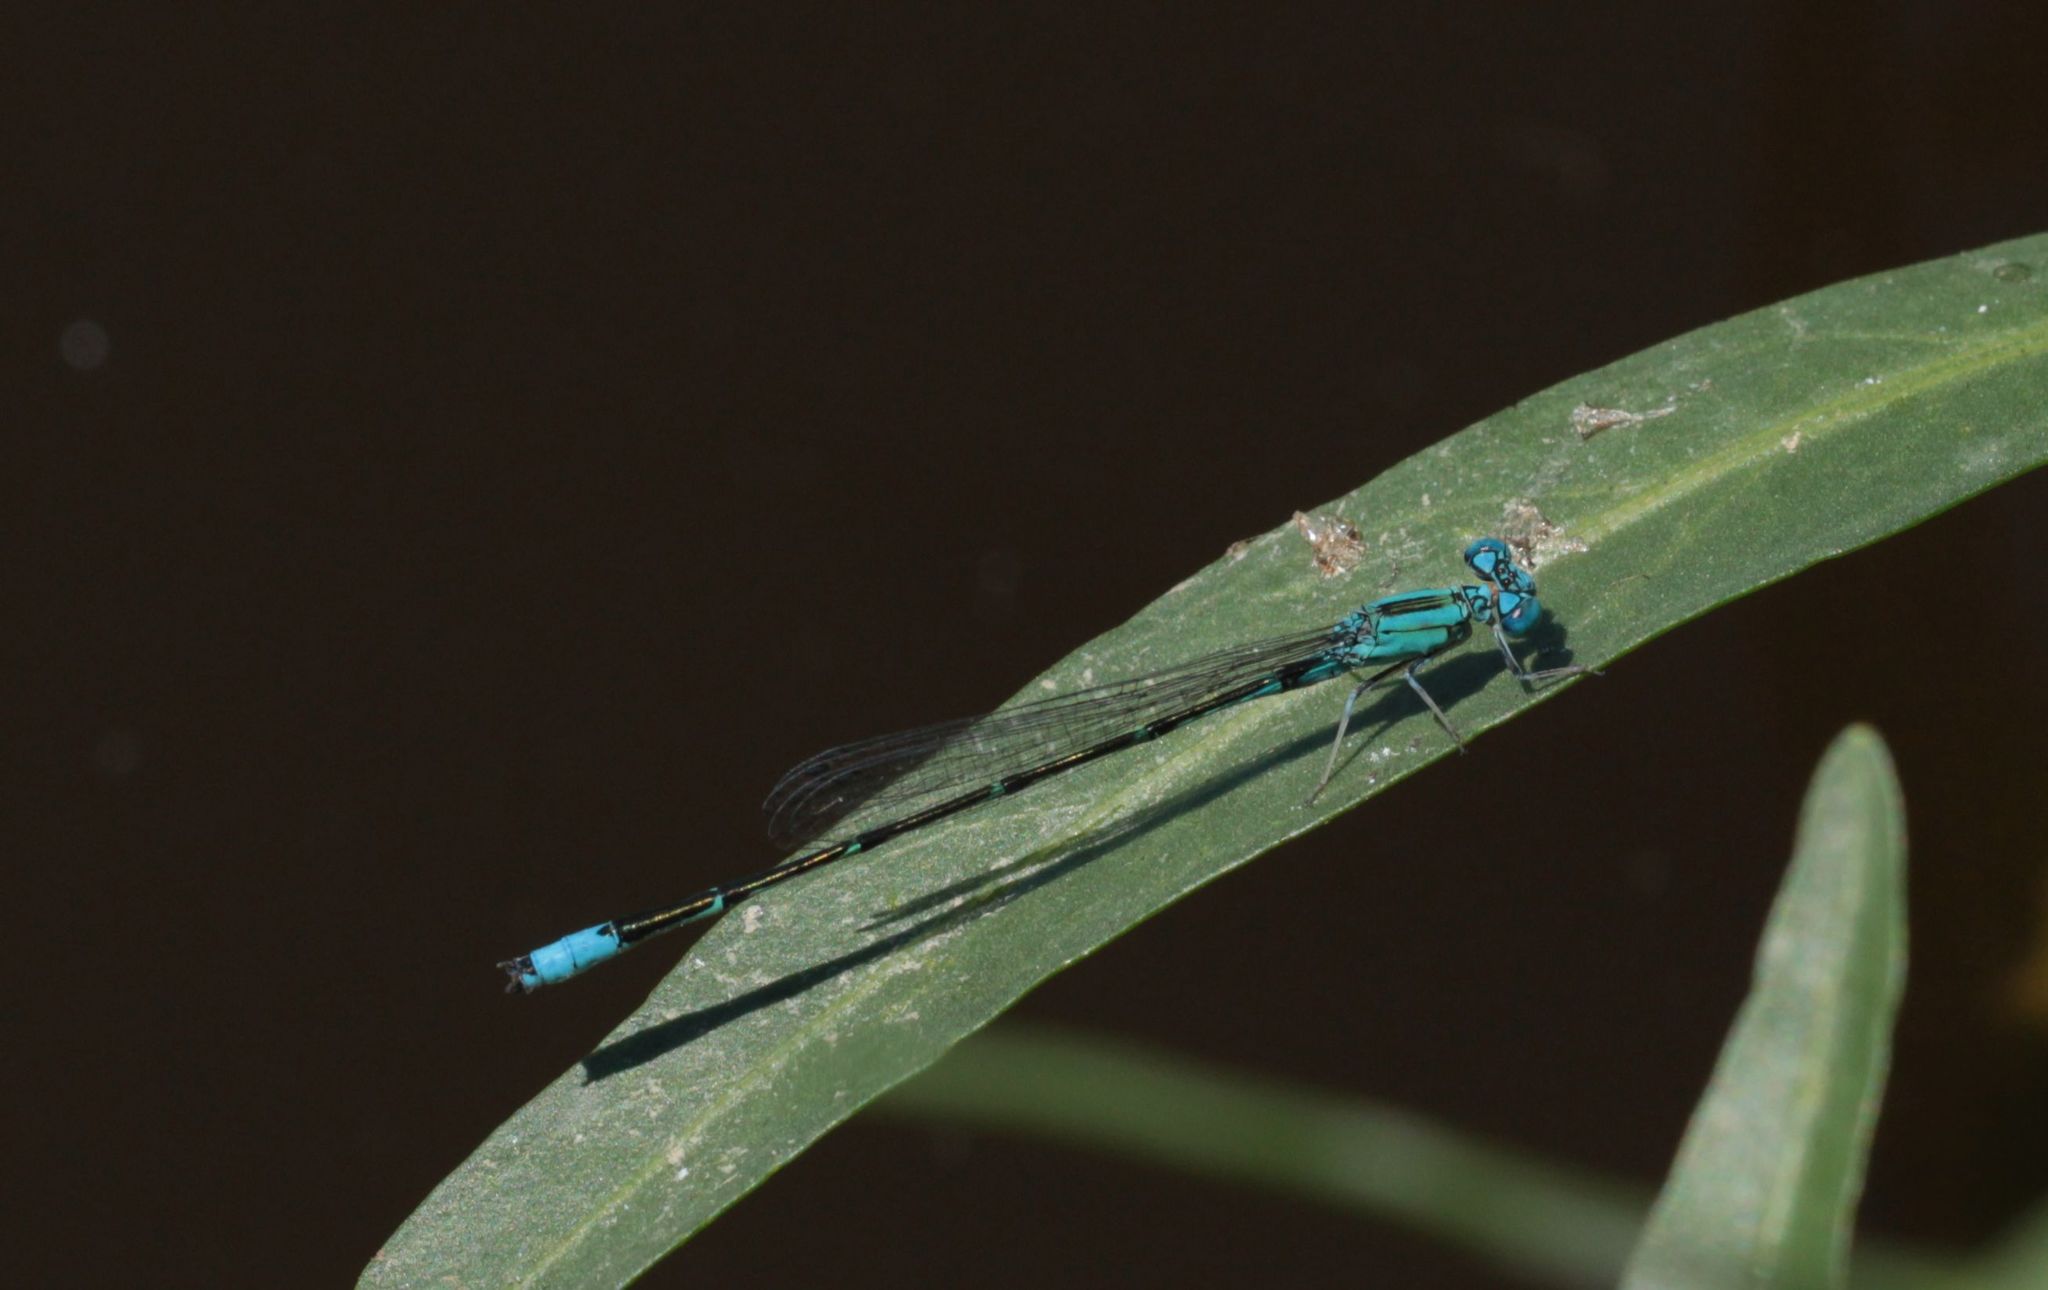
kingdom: Animalia
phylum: Arthropoda
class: Insecta
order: Odonata
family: Coenagrionidae
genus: Enallagma
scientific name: Enallagma traviatum
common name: Slender bluet
